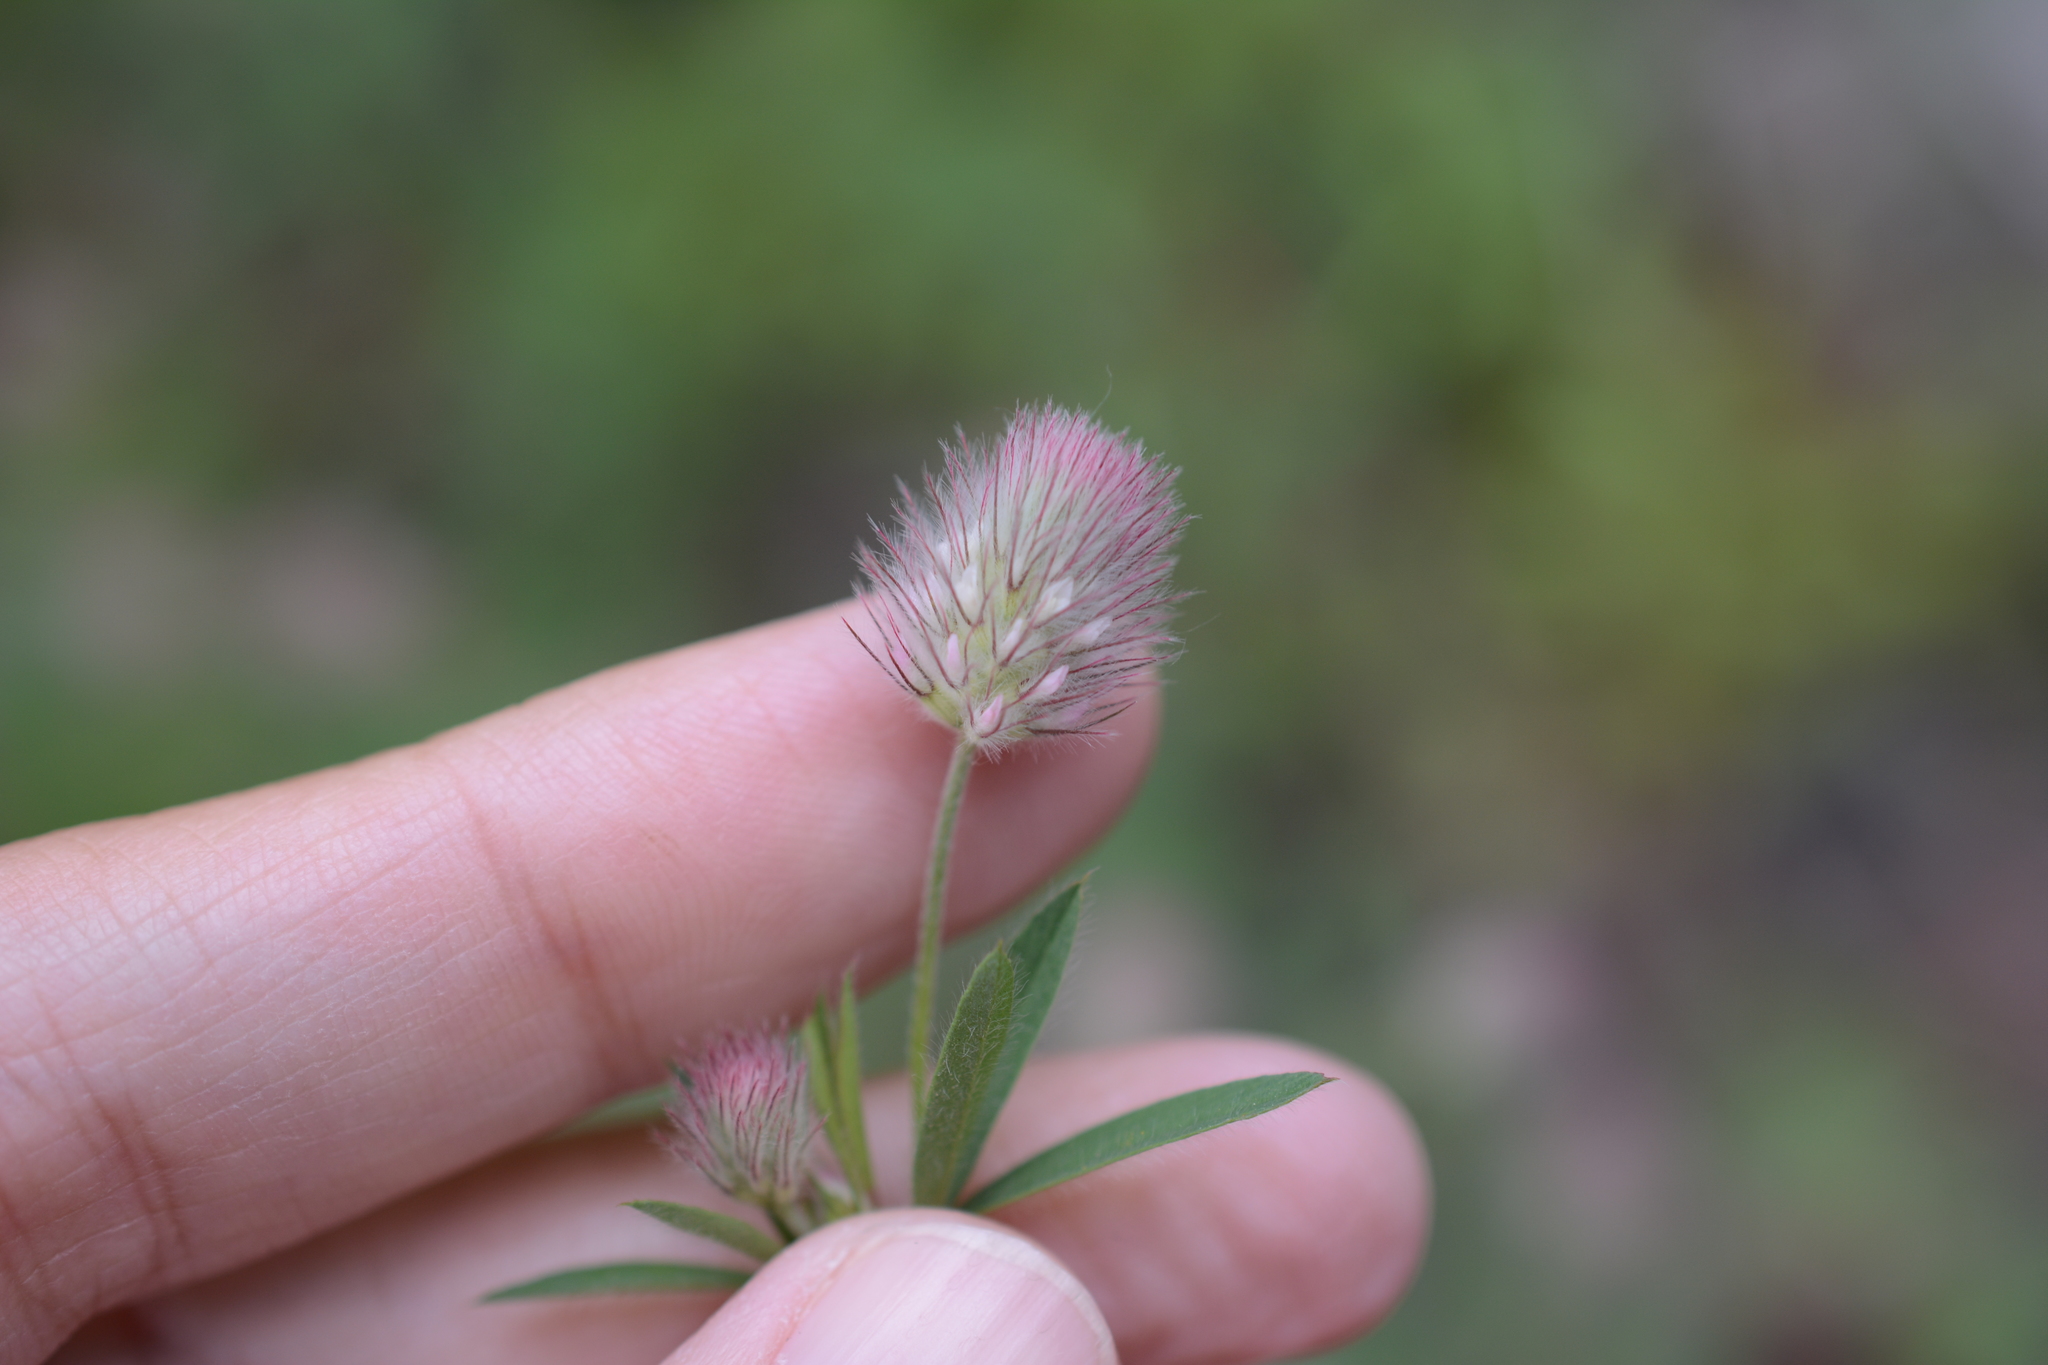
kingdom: Plantae
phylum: Tracheophyta
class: Magnoliopsida
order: Fabales
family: Fabaceae
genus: Trifolium
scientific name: Trifolium arvense
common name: Hare's-foot clover
